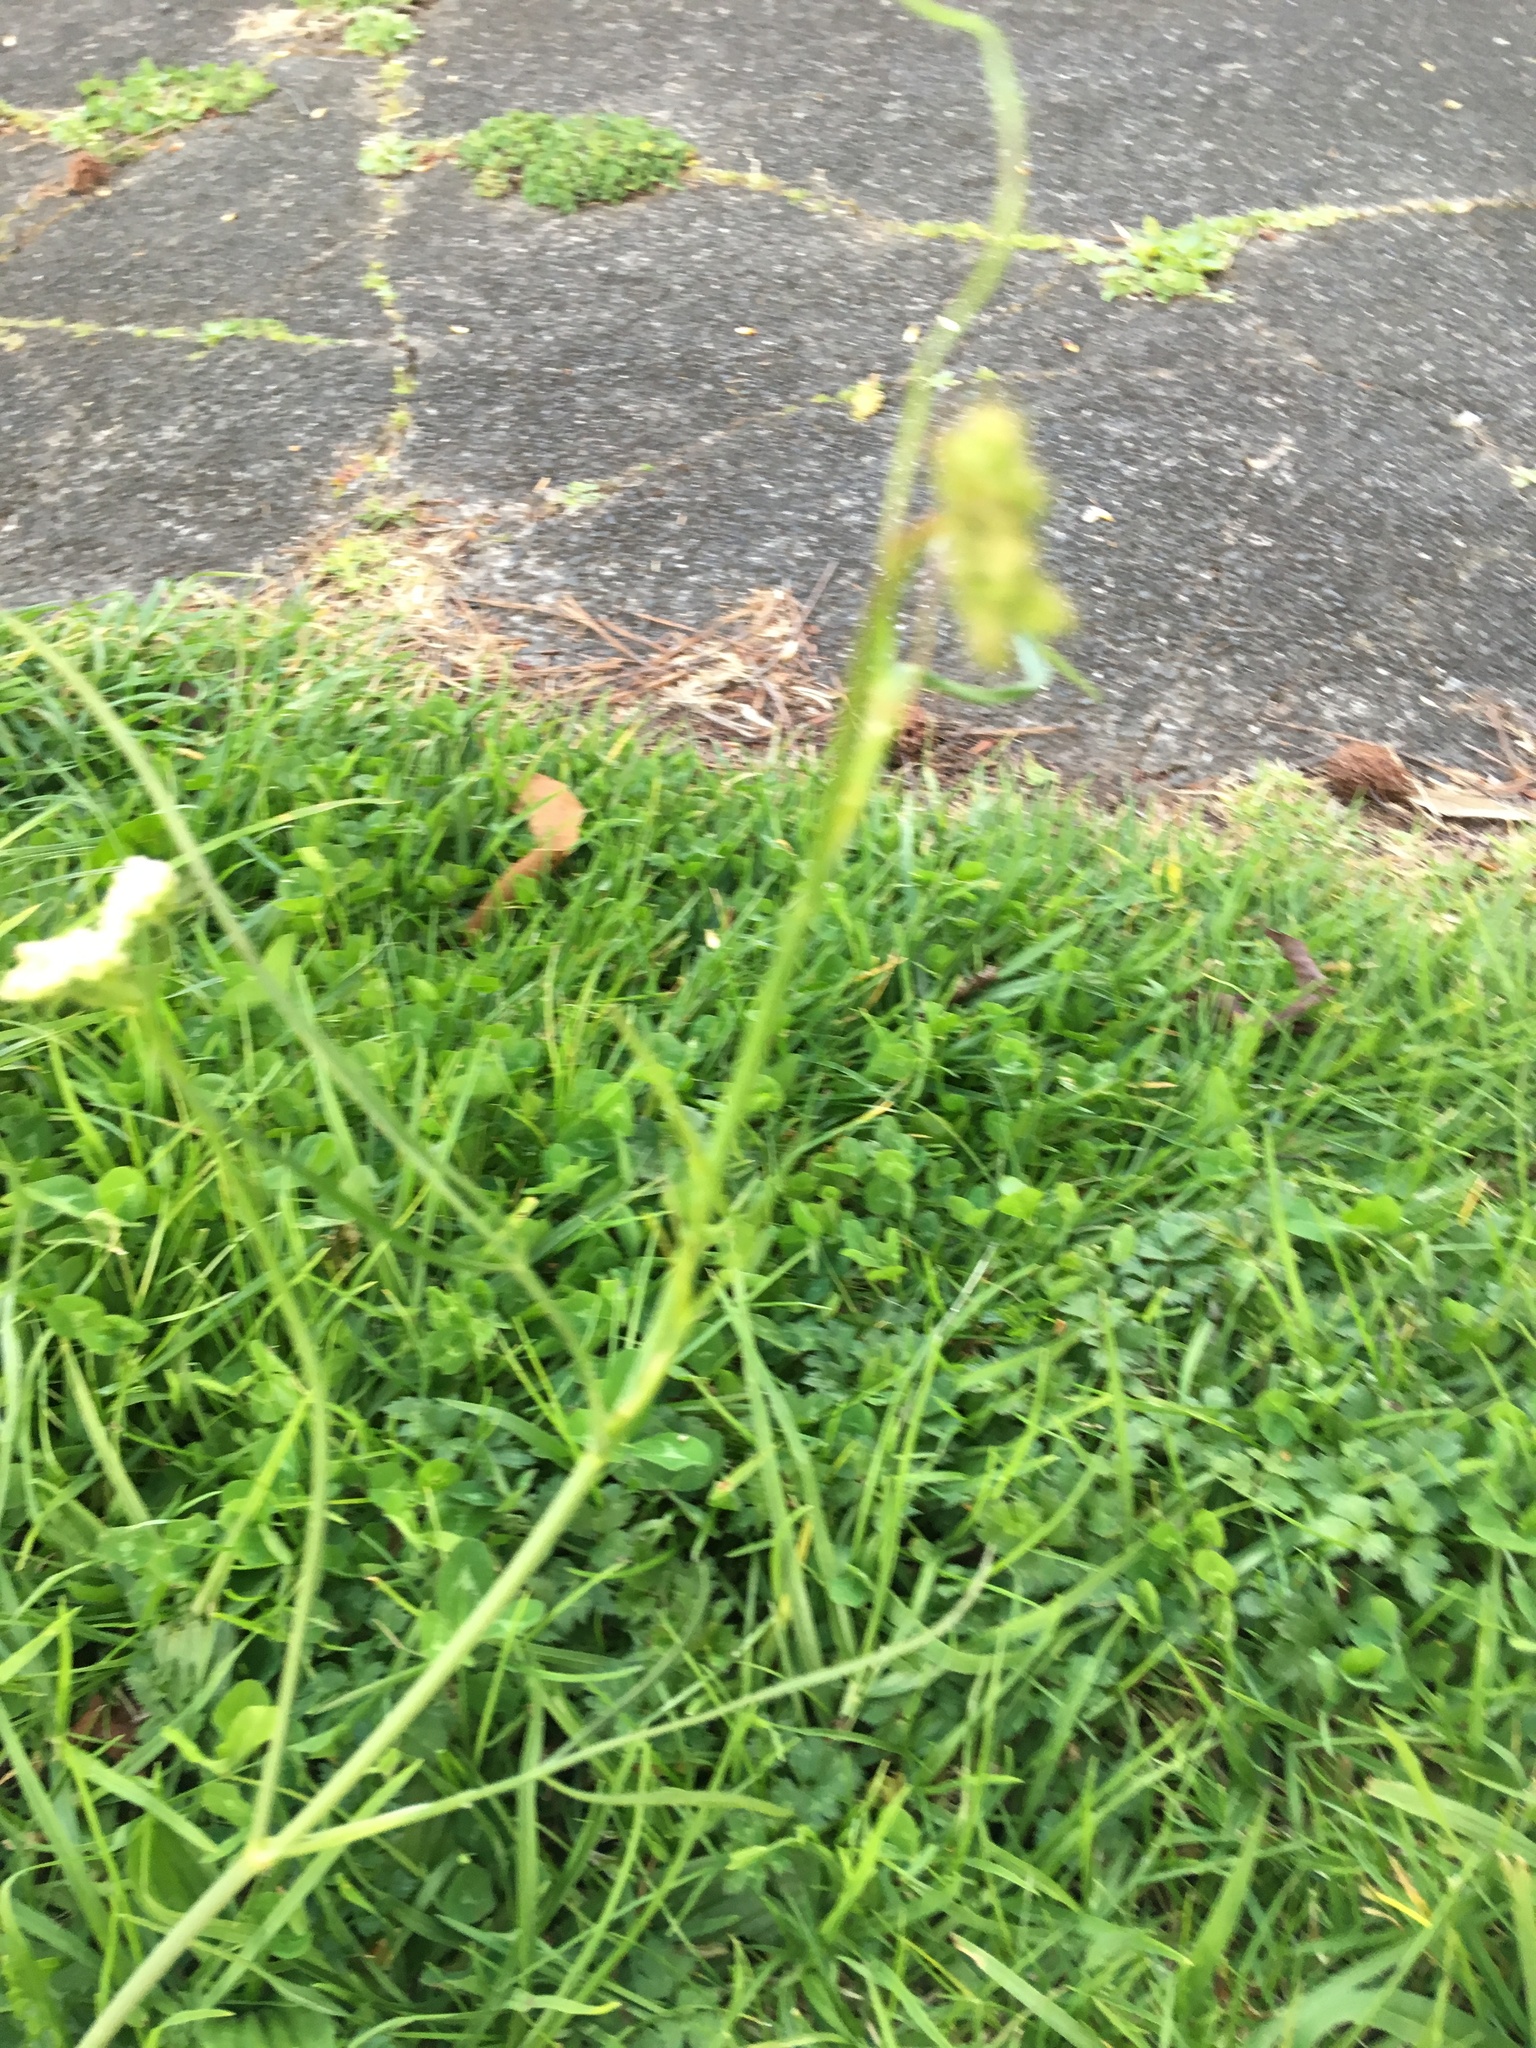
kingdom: Plantae
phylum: Tracheophyta
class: Magnoliopsida
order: Apiales
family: Apiaceae
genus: Daucus
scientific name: Daucus carota
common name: Wild carrot
